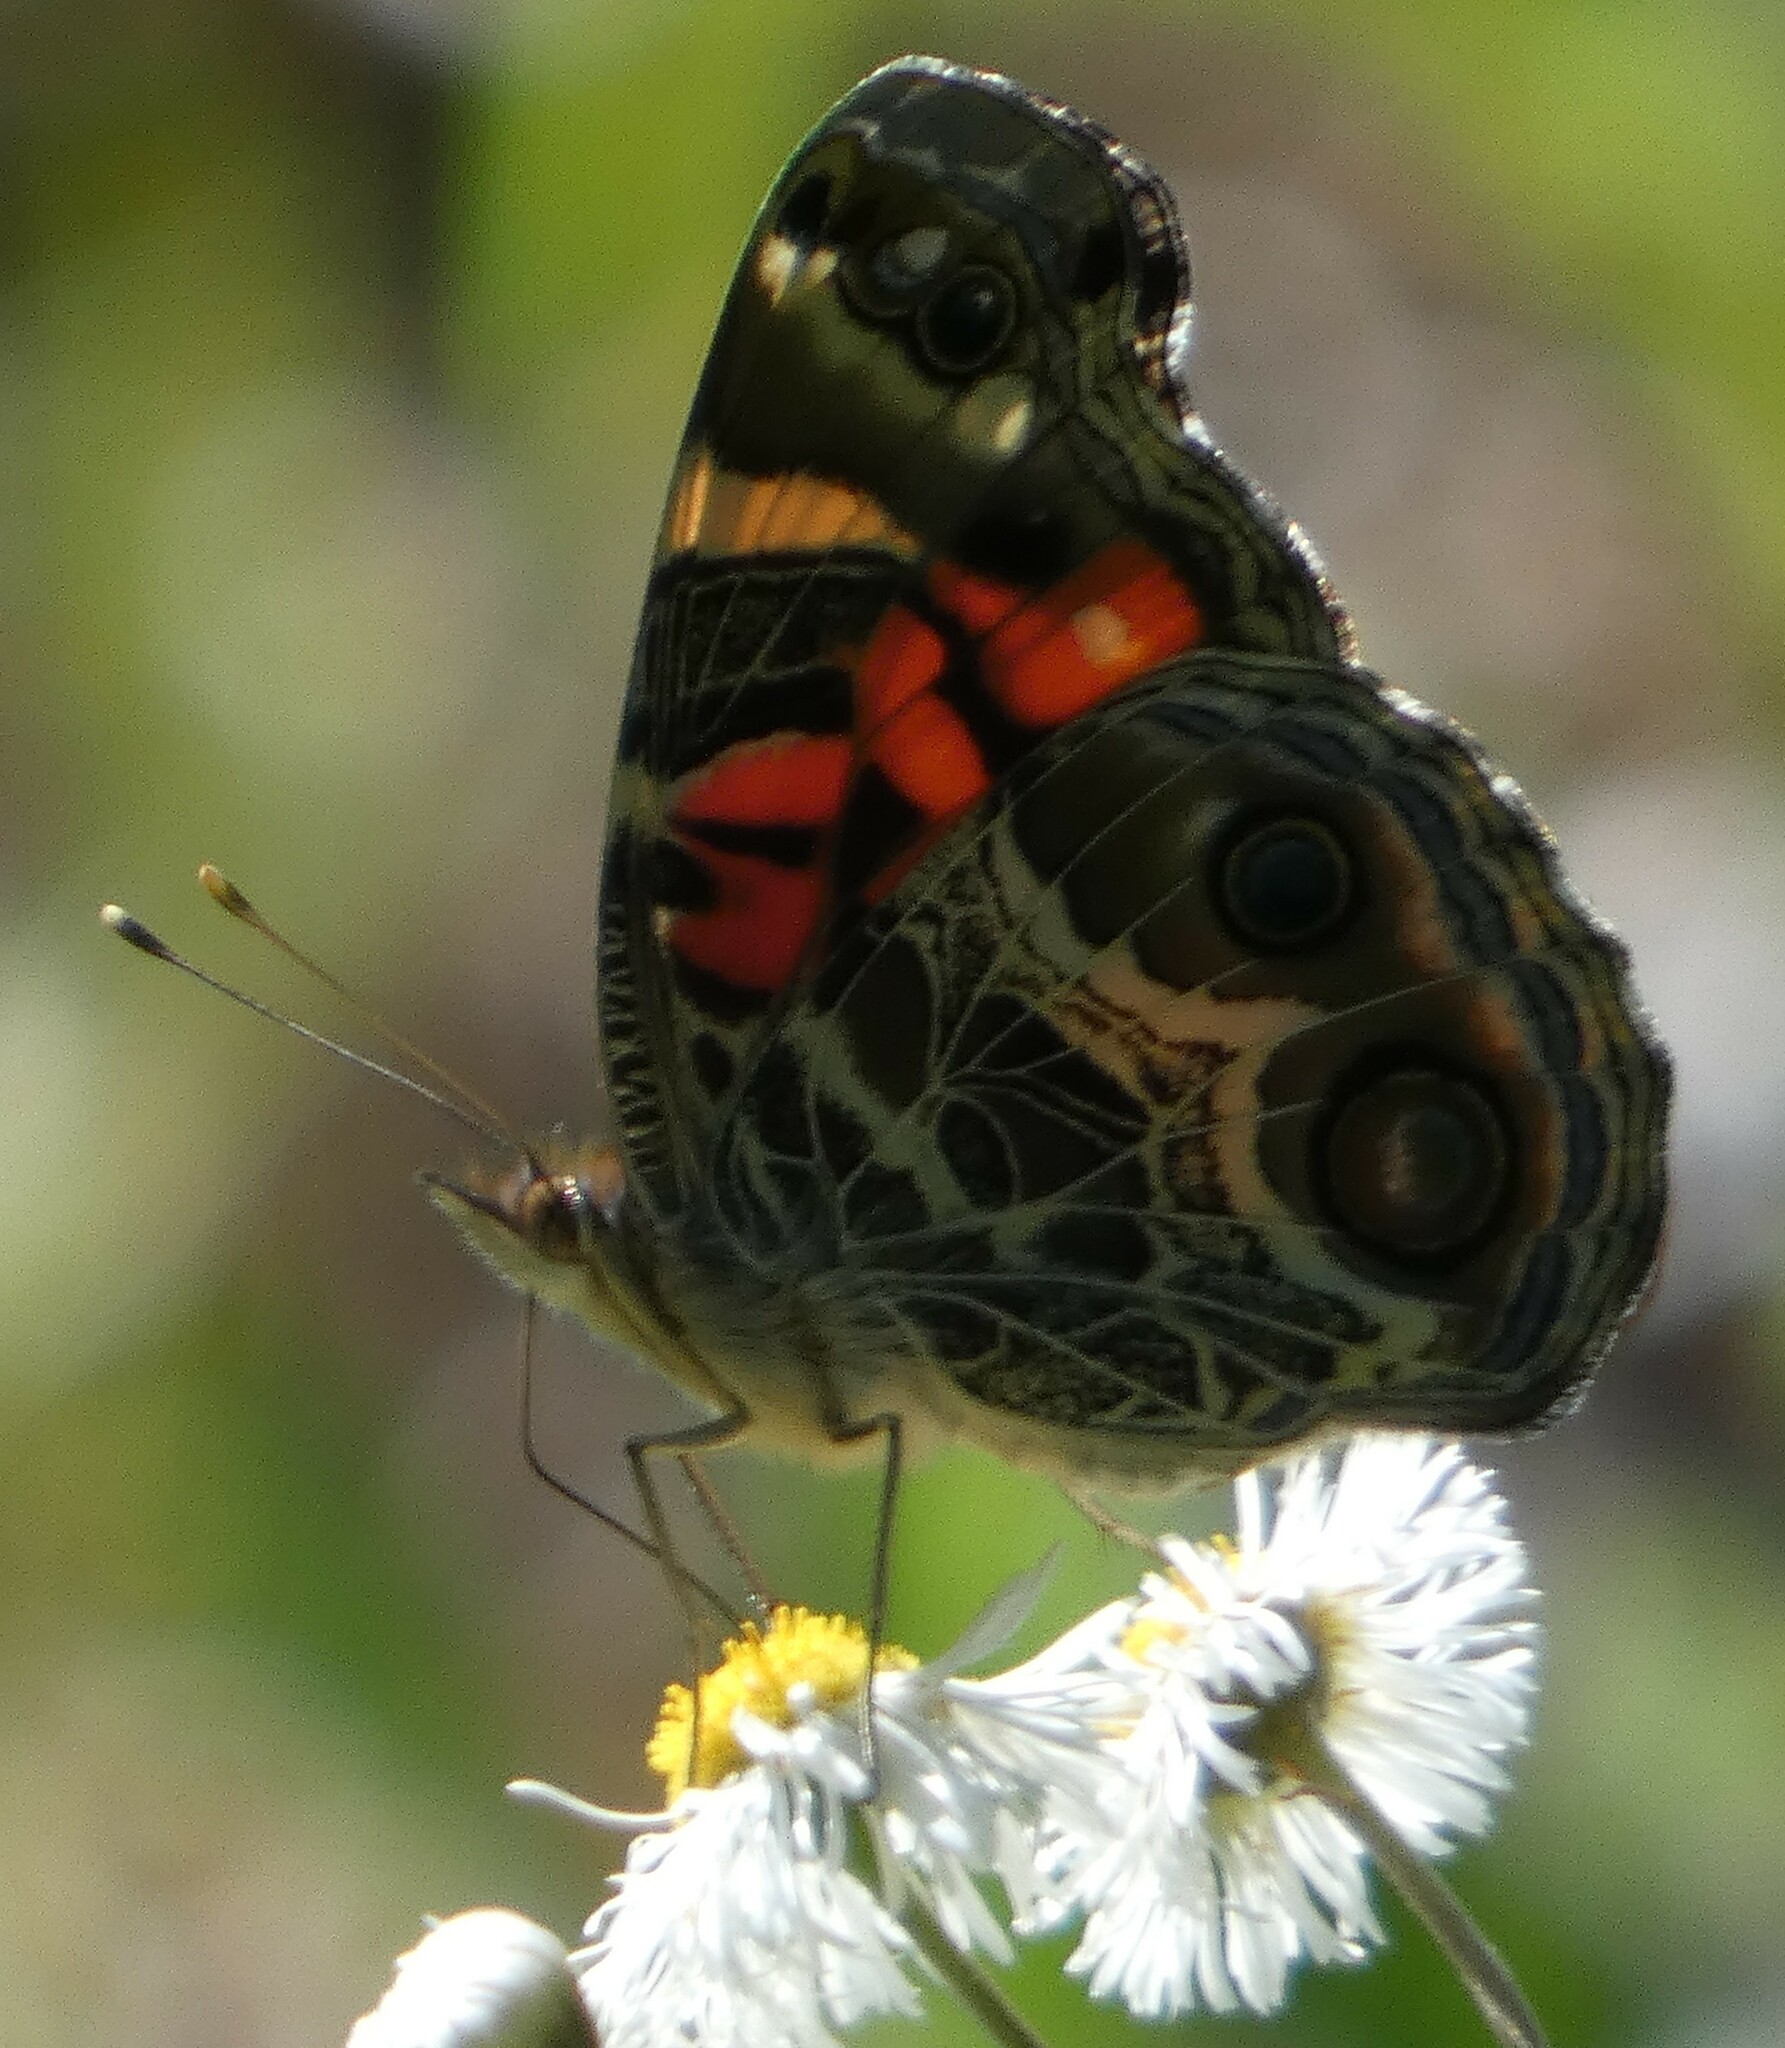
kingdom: Animalia
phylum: Arthropoda
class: Insecta
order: Lepidoptera
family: Nymphalidae
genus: Vanessa
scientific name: Vanessa virginiensis
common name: American lady
